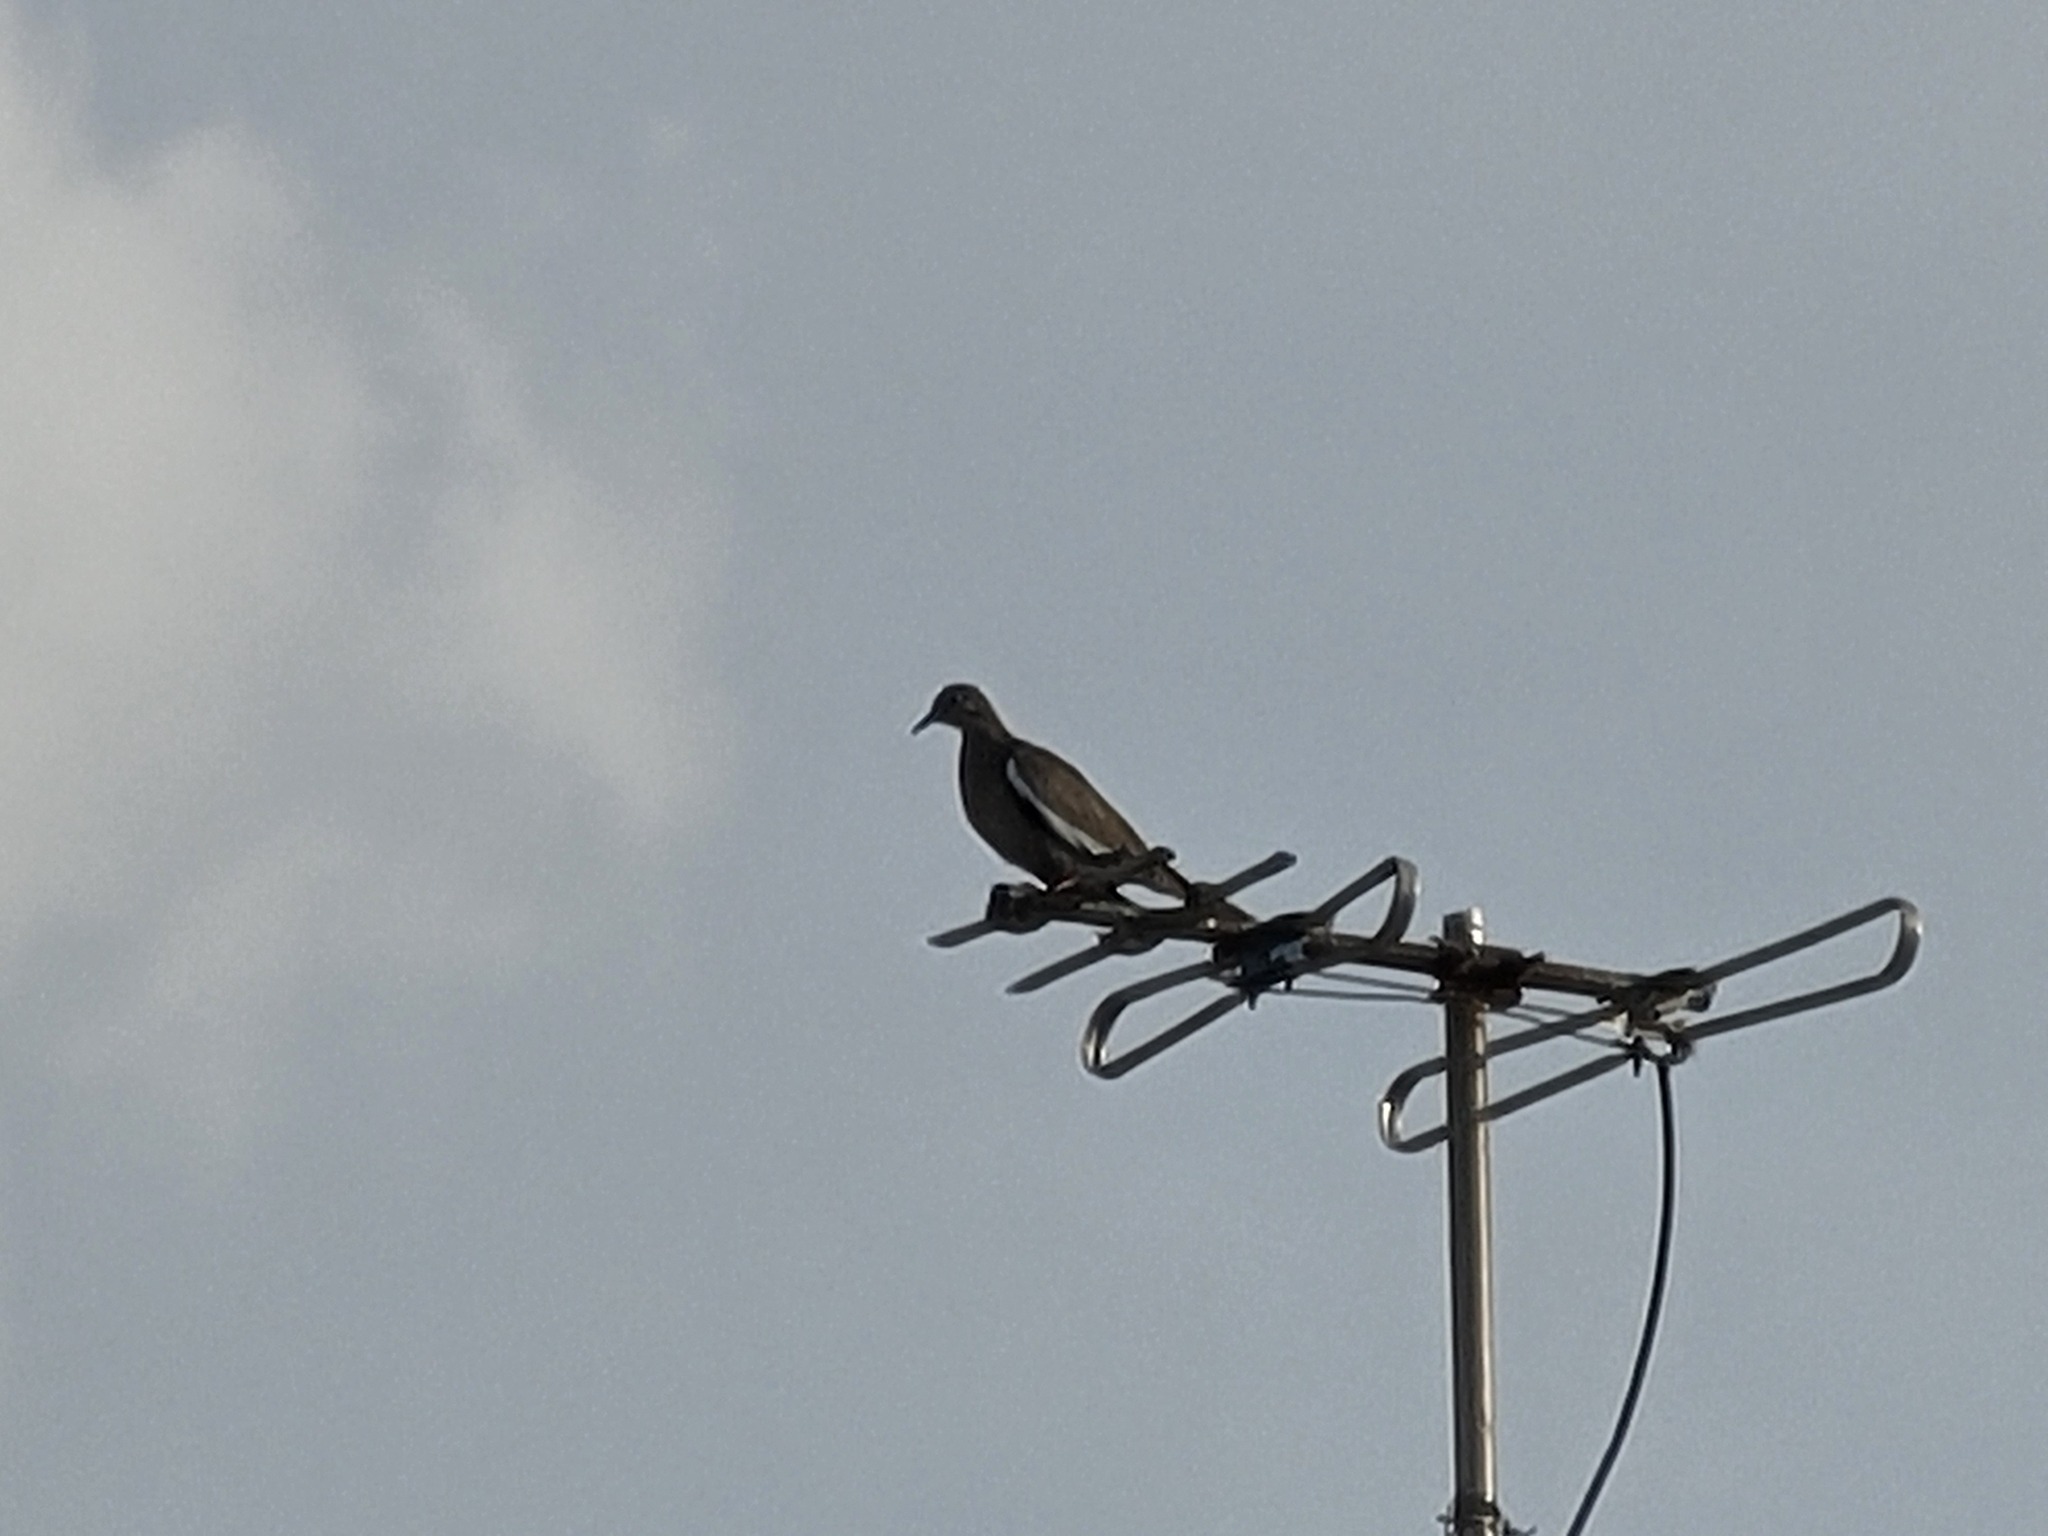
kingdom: Animalia
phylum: Chordata
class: Aves
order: Columbiformes
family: Columbidae
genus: Zenaida
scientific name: Zenaida asiatica
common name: White-winged dove
